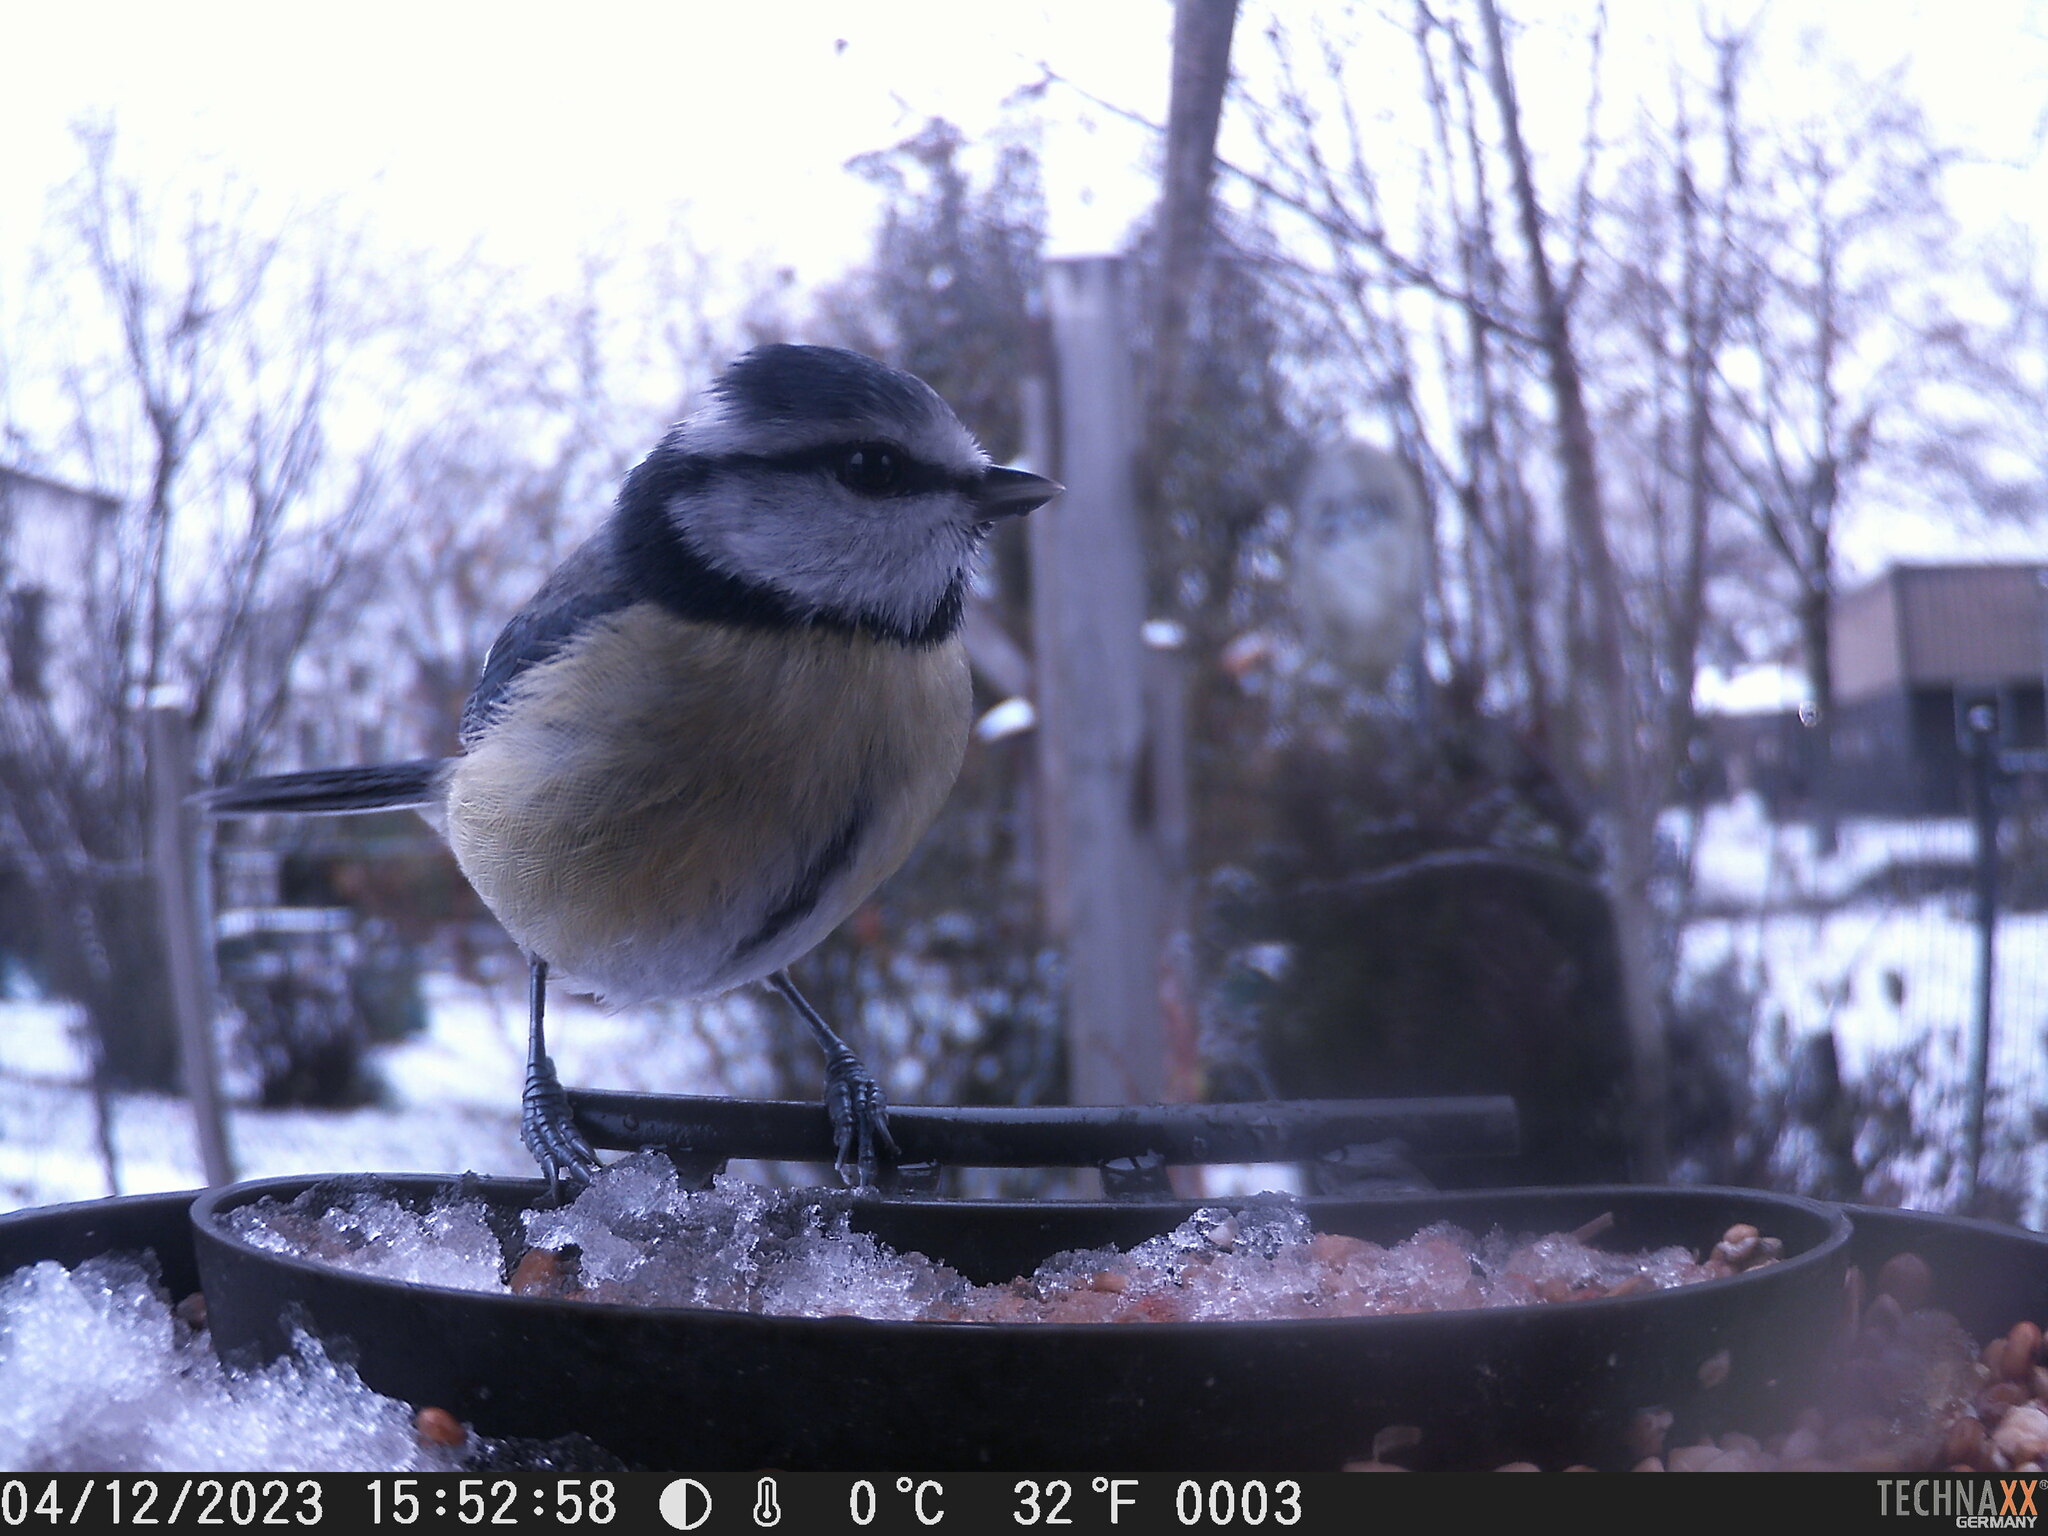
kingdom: Animalia
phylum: Chordata
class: Aves
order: Passeriformes
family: Paridae
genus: Cyanistes
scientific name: Cyanistes caeruleus
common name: Eurasian blue tit
